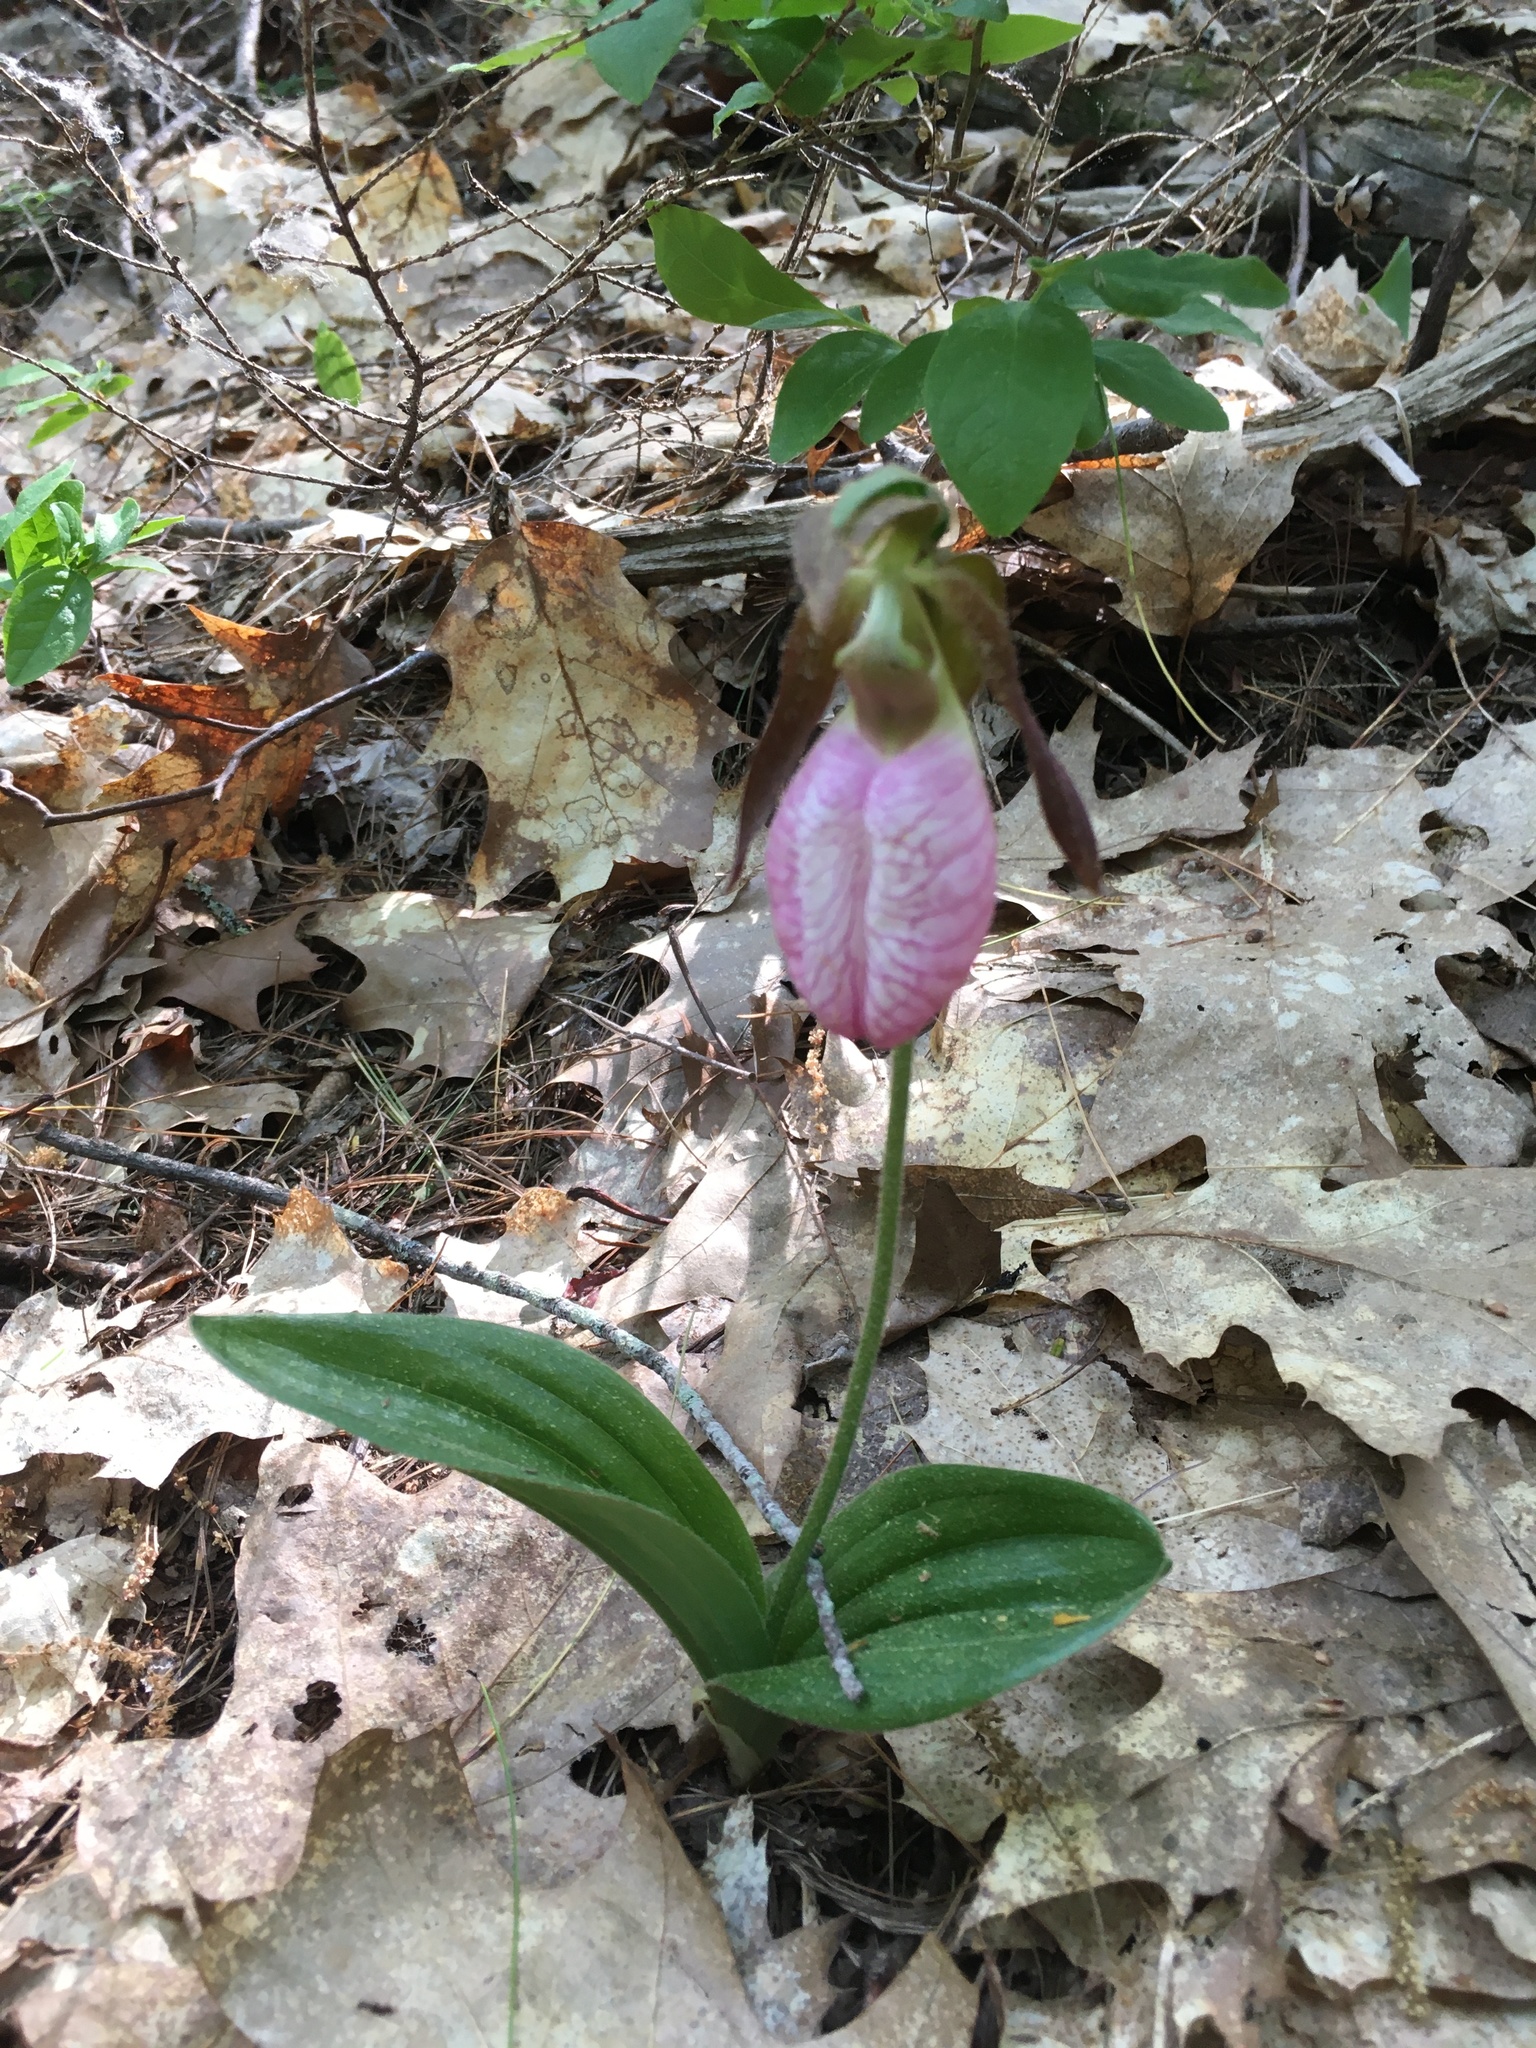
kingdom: Plantae
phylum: Tracheophyta
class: Liliopsida
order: Asparagales
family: Orchidaceae
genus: Cypripedium
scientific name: Cypripedium acaule
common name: Pink lady's-slipper
